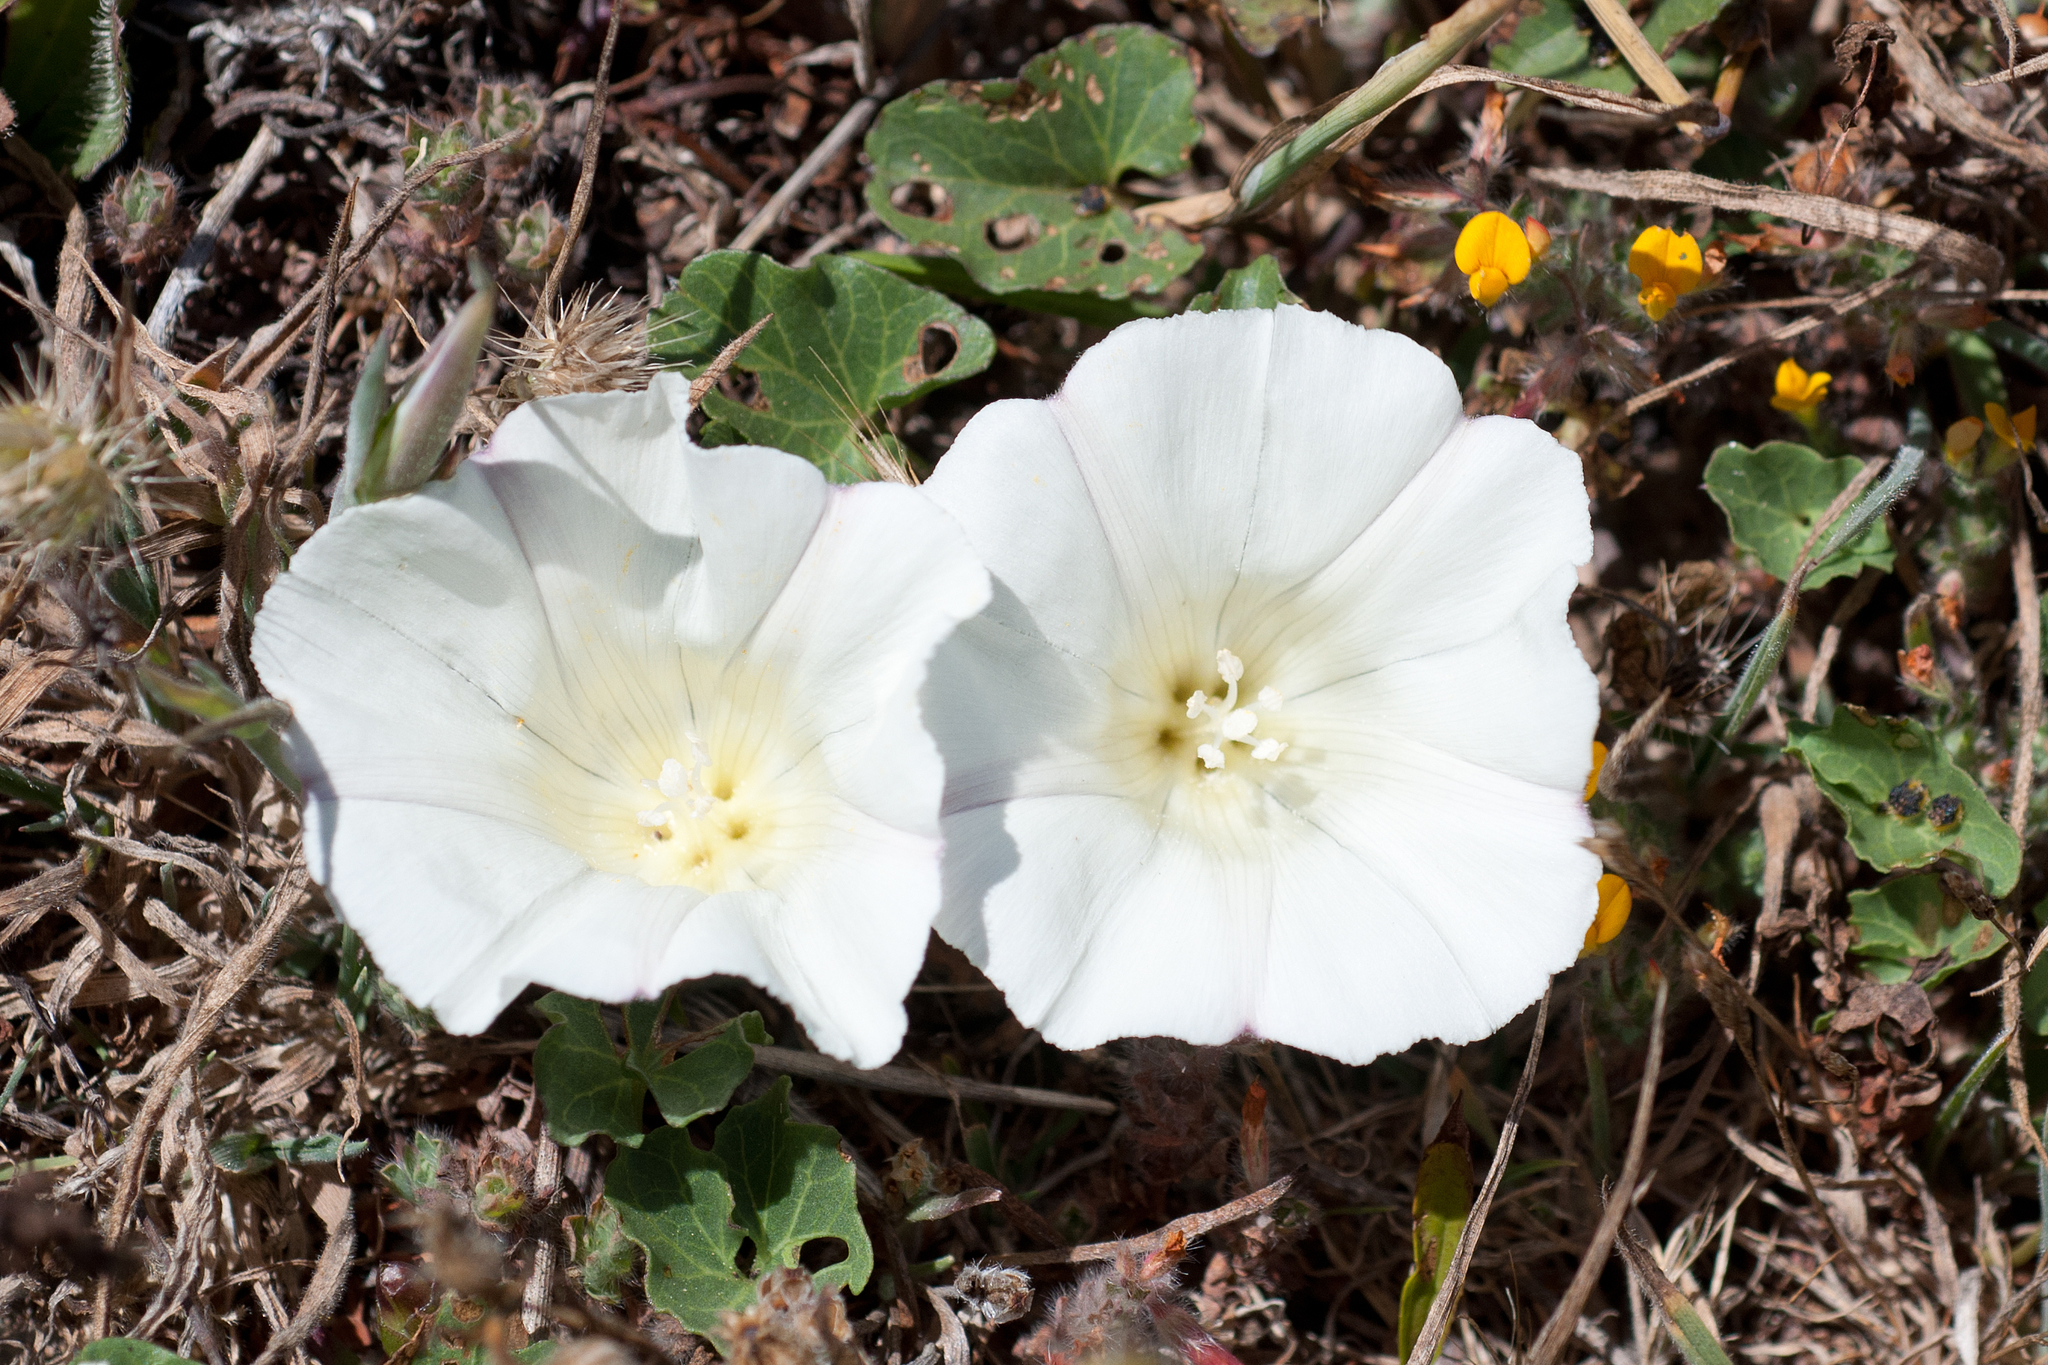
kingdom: Plantae
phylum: Tracheophyta
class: Magnoliopsida
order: Solanales
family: Convolvulaceae
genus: Calystegia
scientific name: Calystegia purpurata
